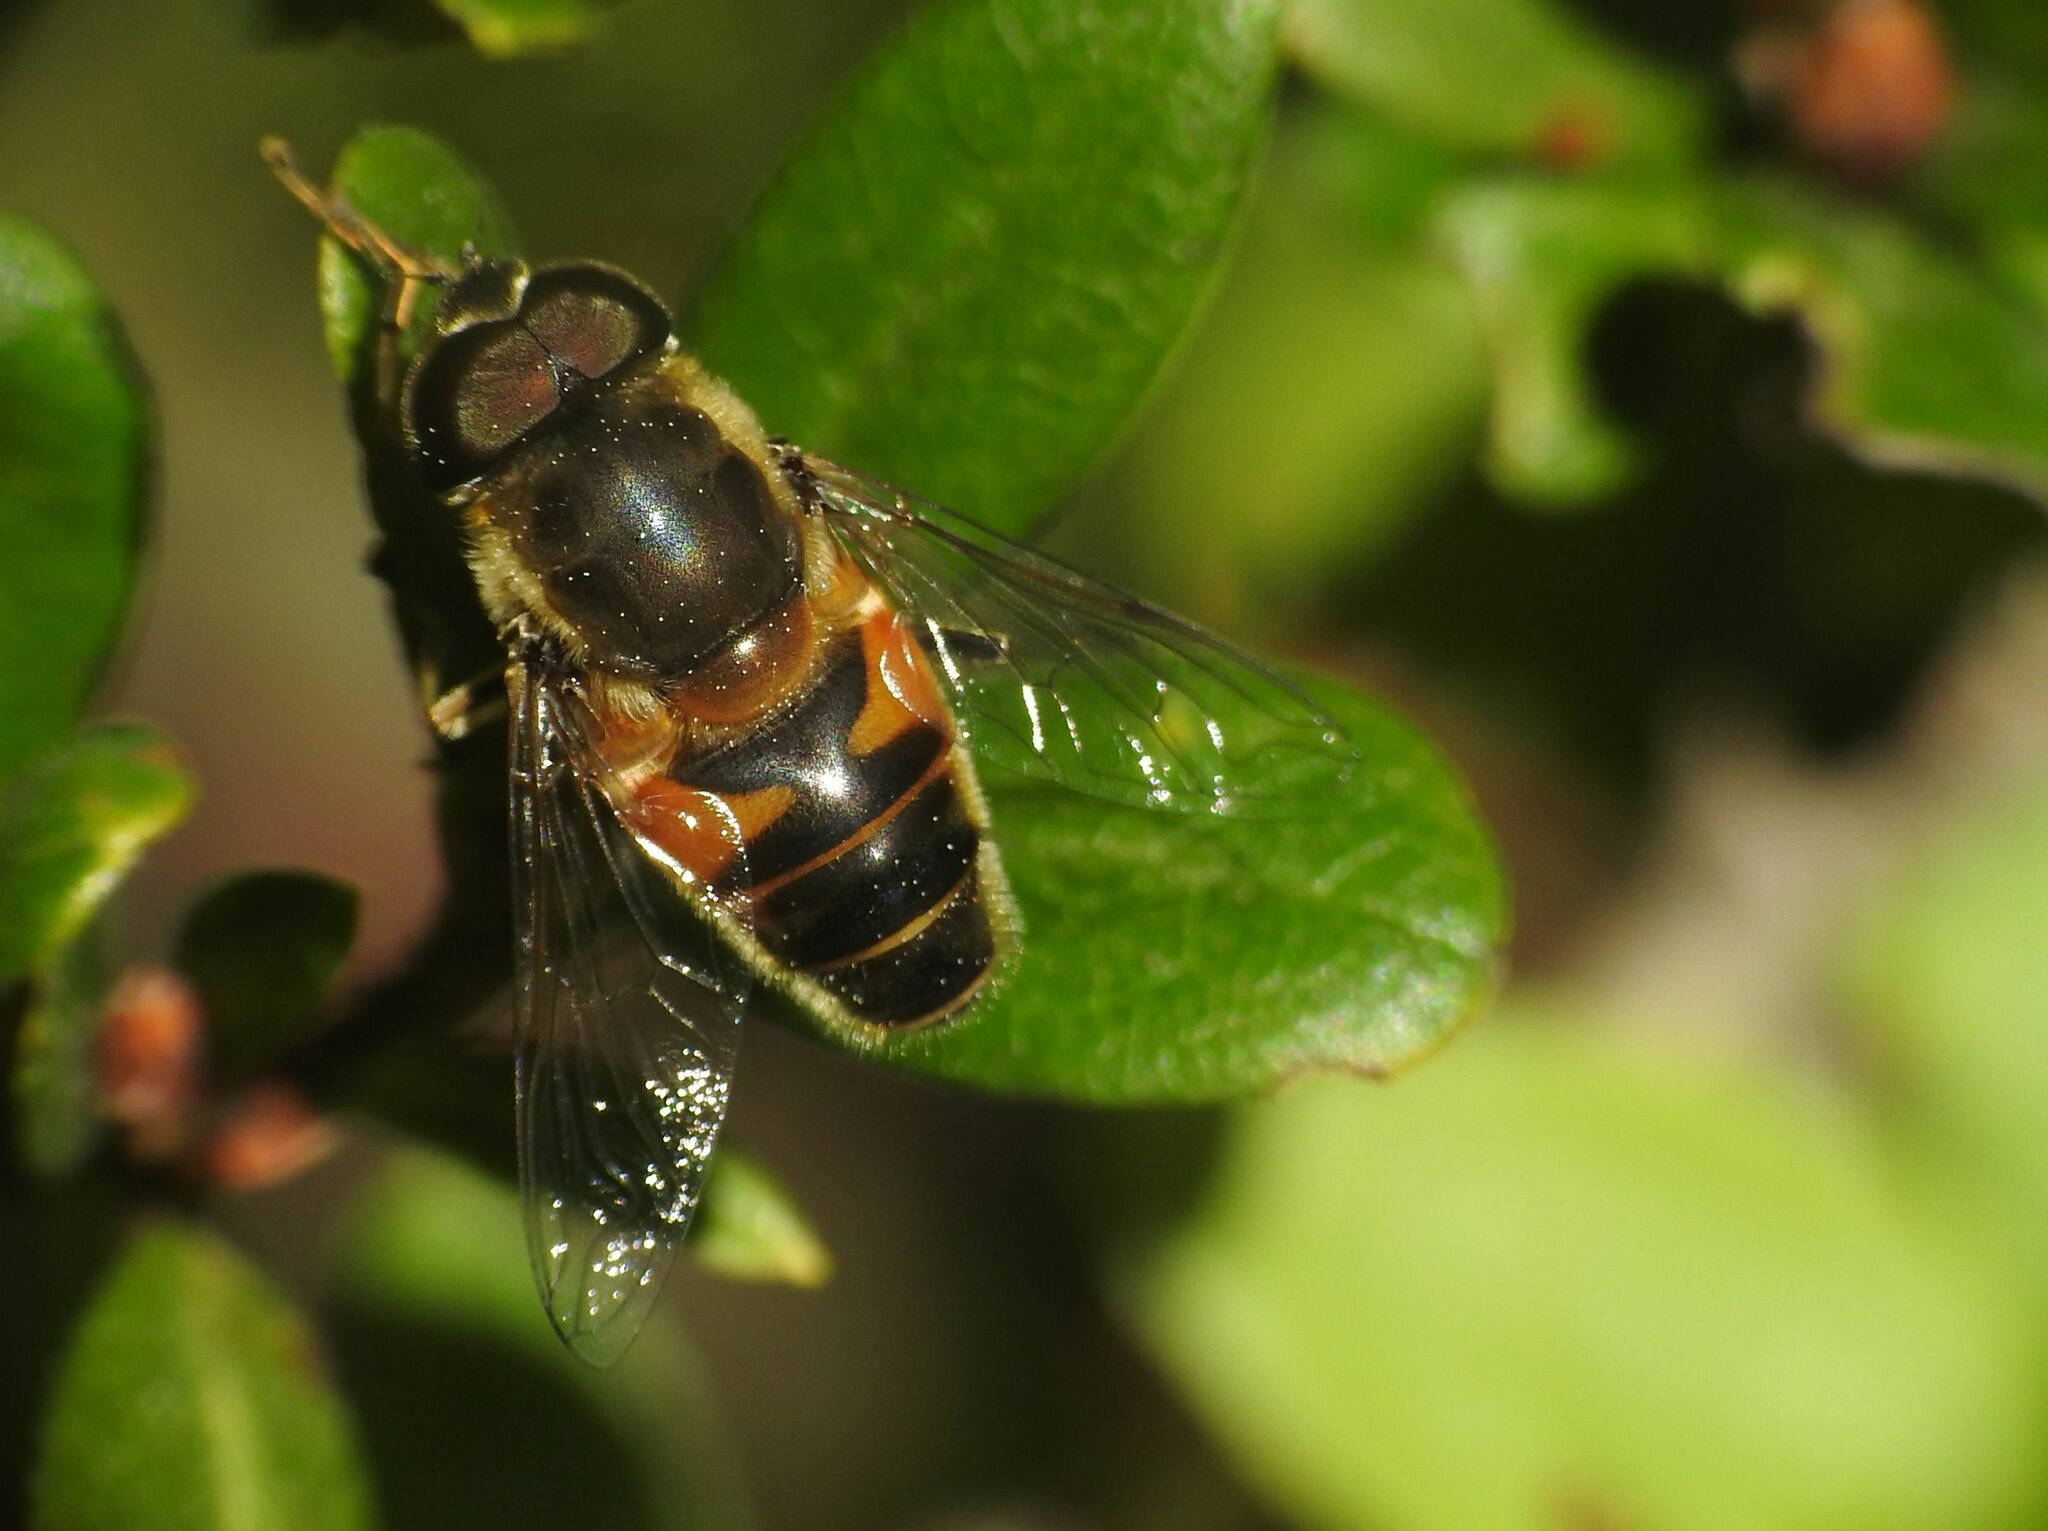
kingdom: Animalia
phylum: Arthropoda
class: Insecta
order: Diptera
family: Syrphidae
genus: Eristalis
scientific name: Eristalis pertinax
